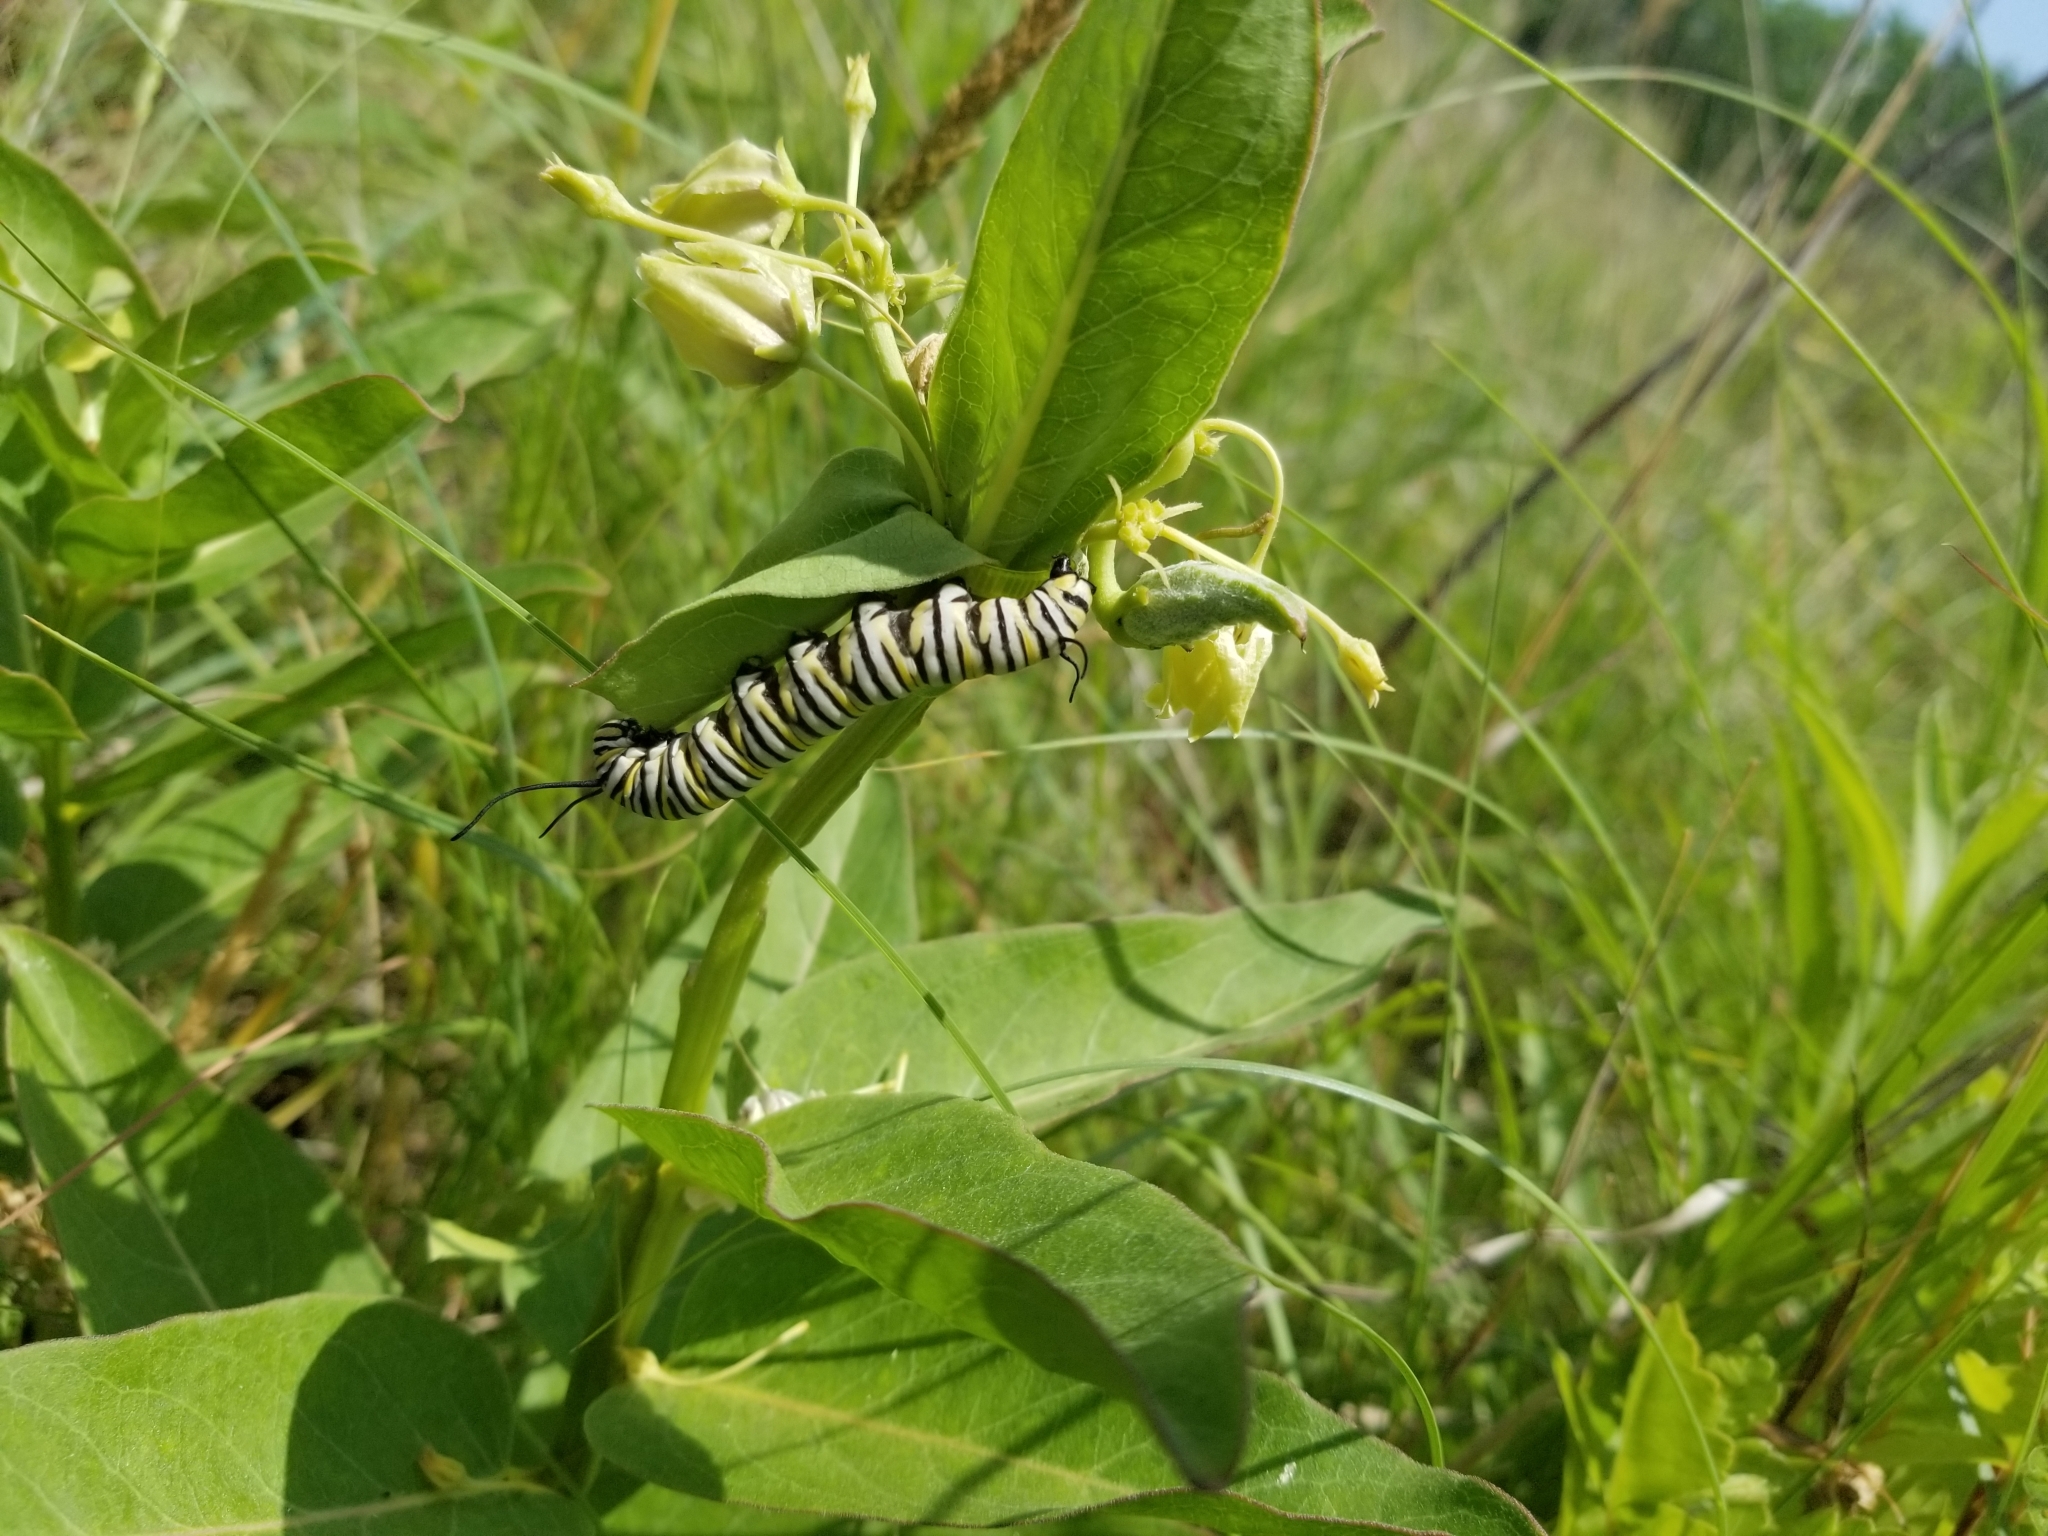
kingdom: Animalia
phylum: Arthropoda
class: Insecta
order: Lepidoptera
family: Nymphalidae
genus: Danaus
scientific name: Danaus plexippus
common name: Monarch
